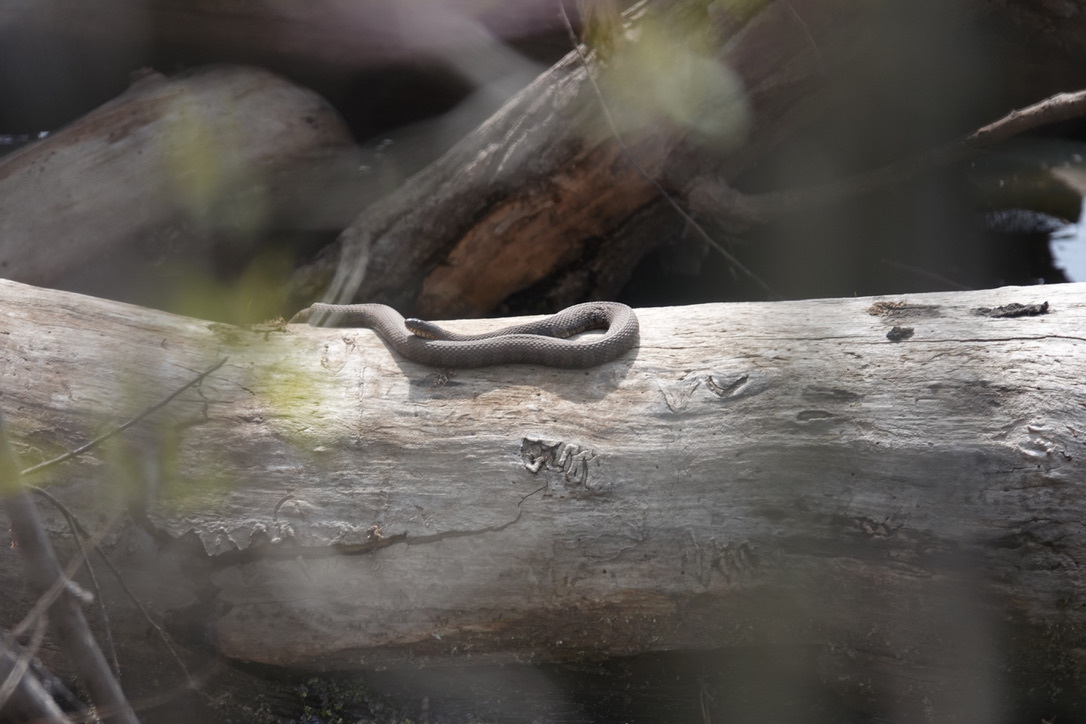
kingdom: Animalia
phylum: Chordata
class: Squamata
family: Colubridae
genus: Nerodia
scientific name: Nerodia sipedon
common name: Northern water snake
